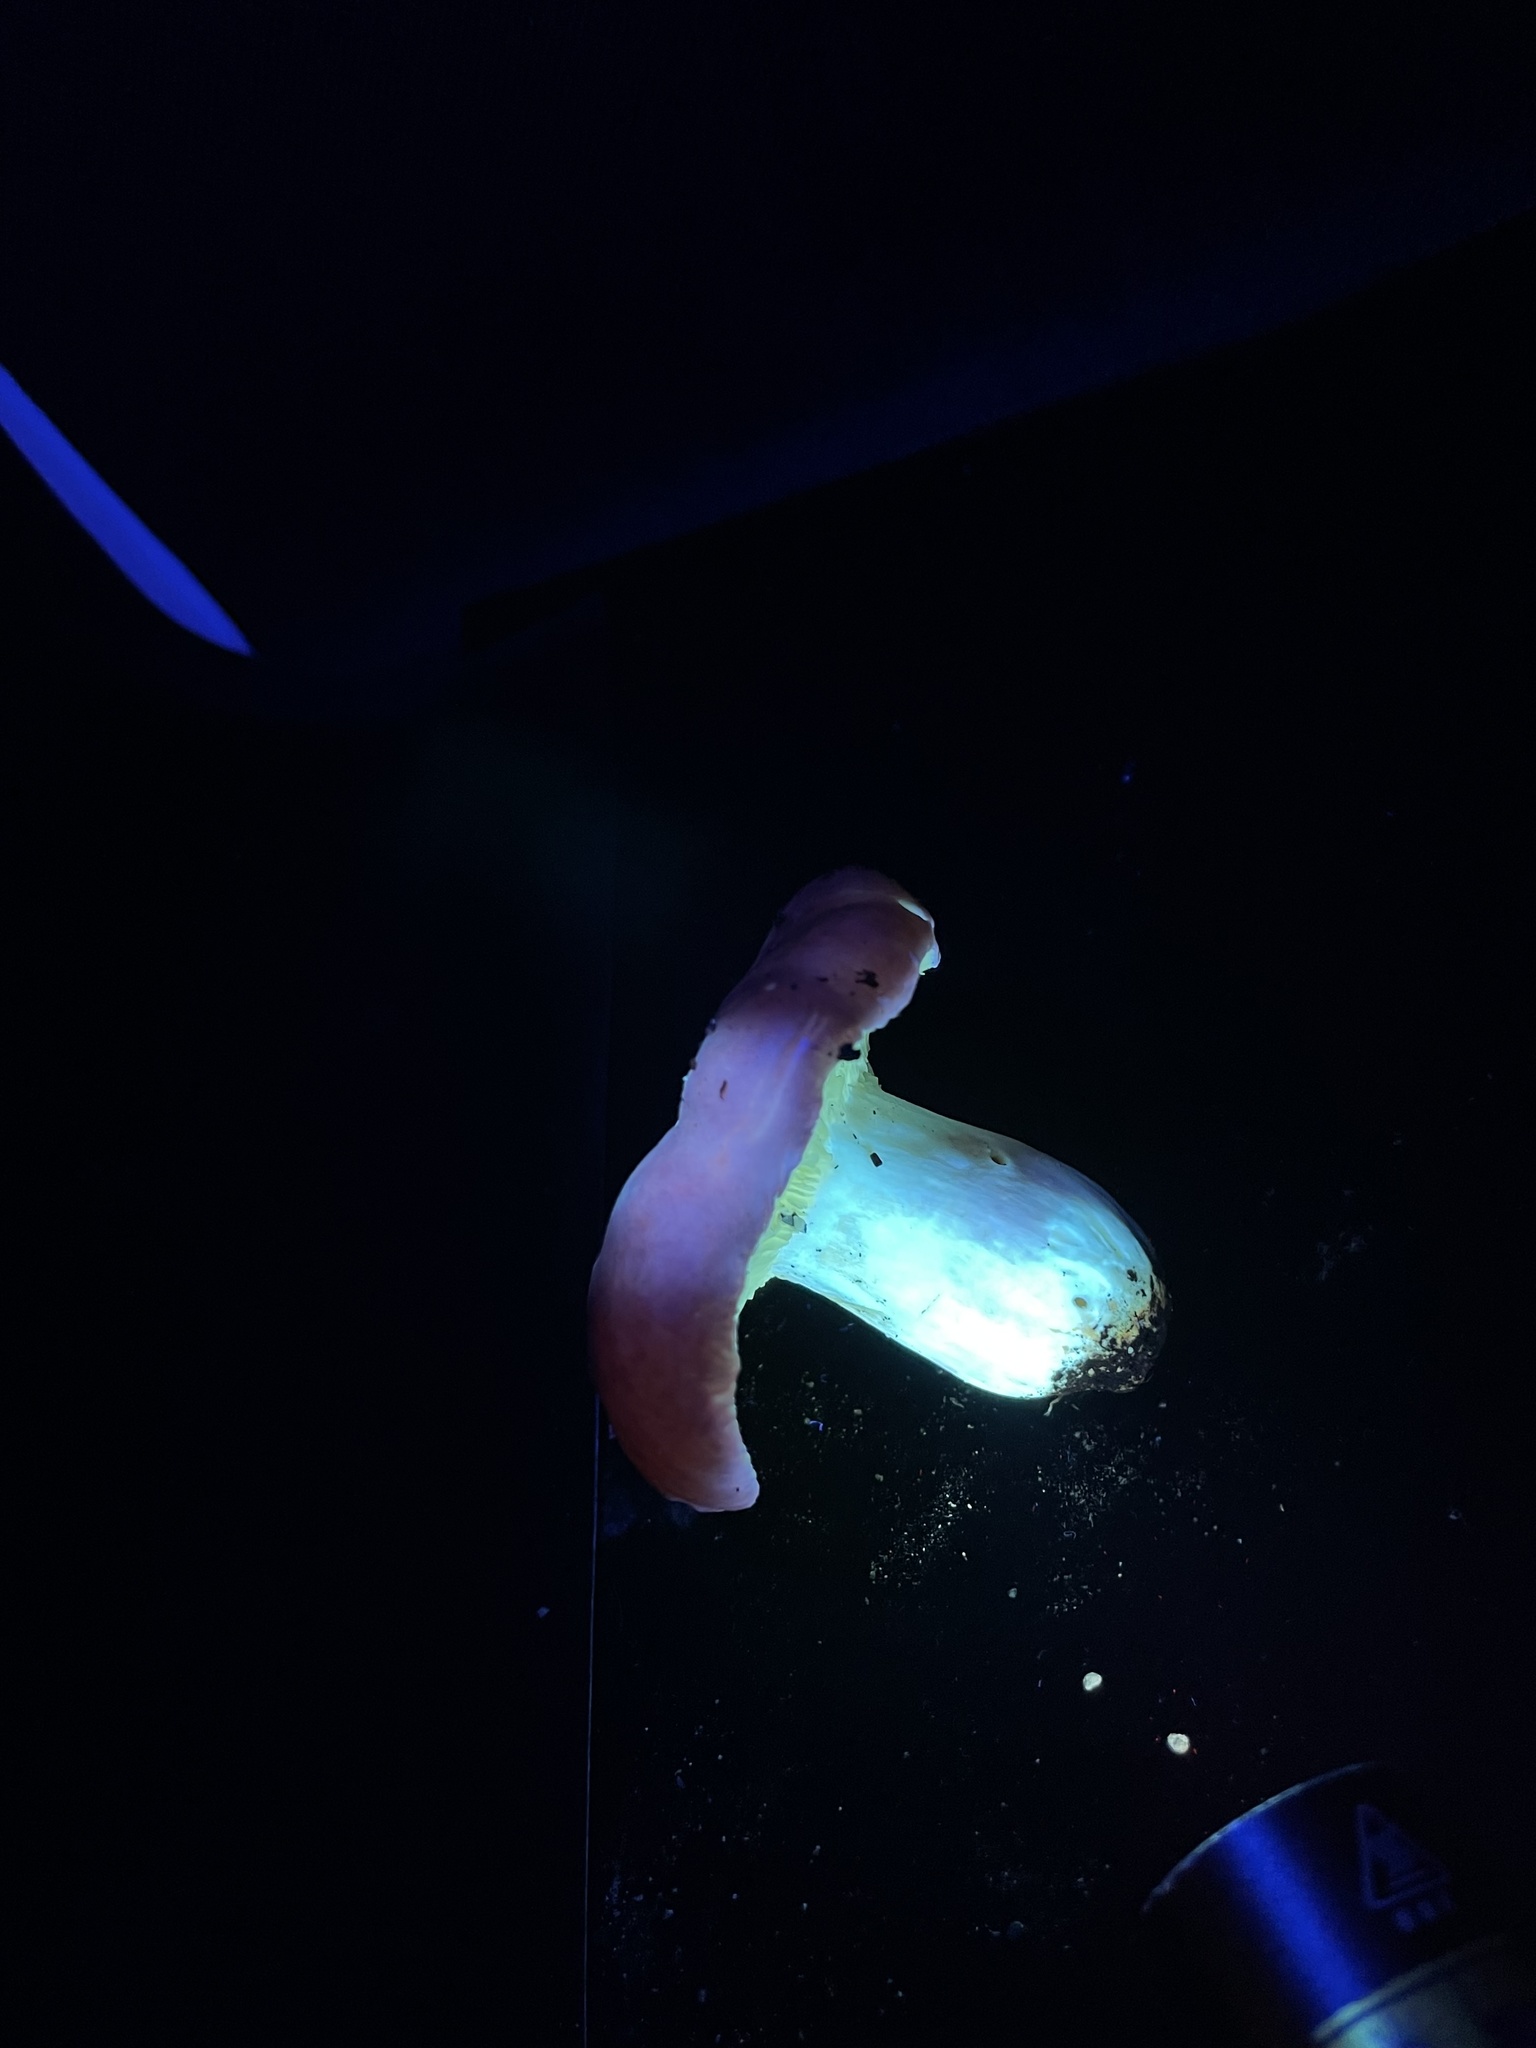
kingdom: Fungi
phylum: Basidiomycota
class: Agaricomycetes
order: Russulales
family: Russulaceae
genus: Russula
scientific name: Russula rhodocephala
